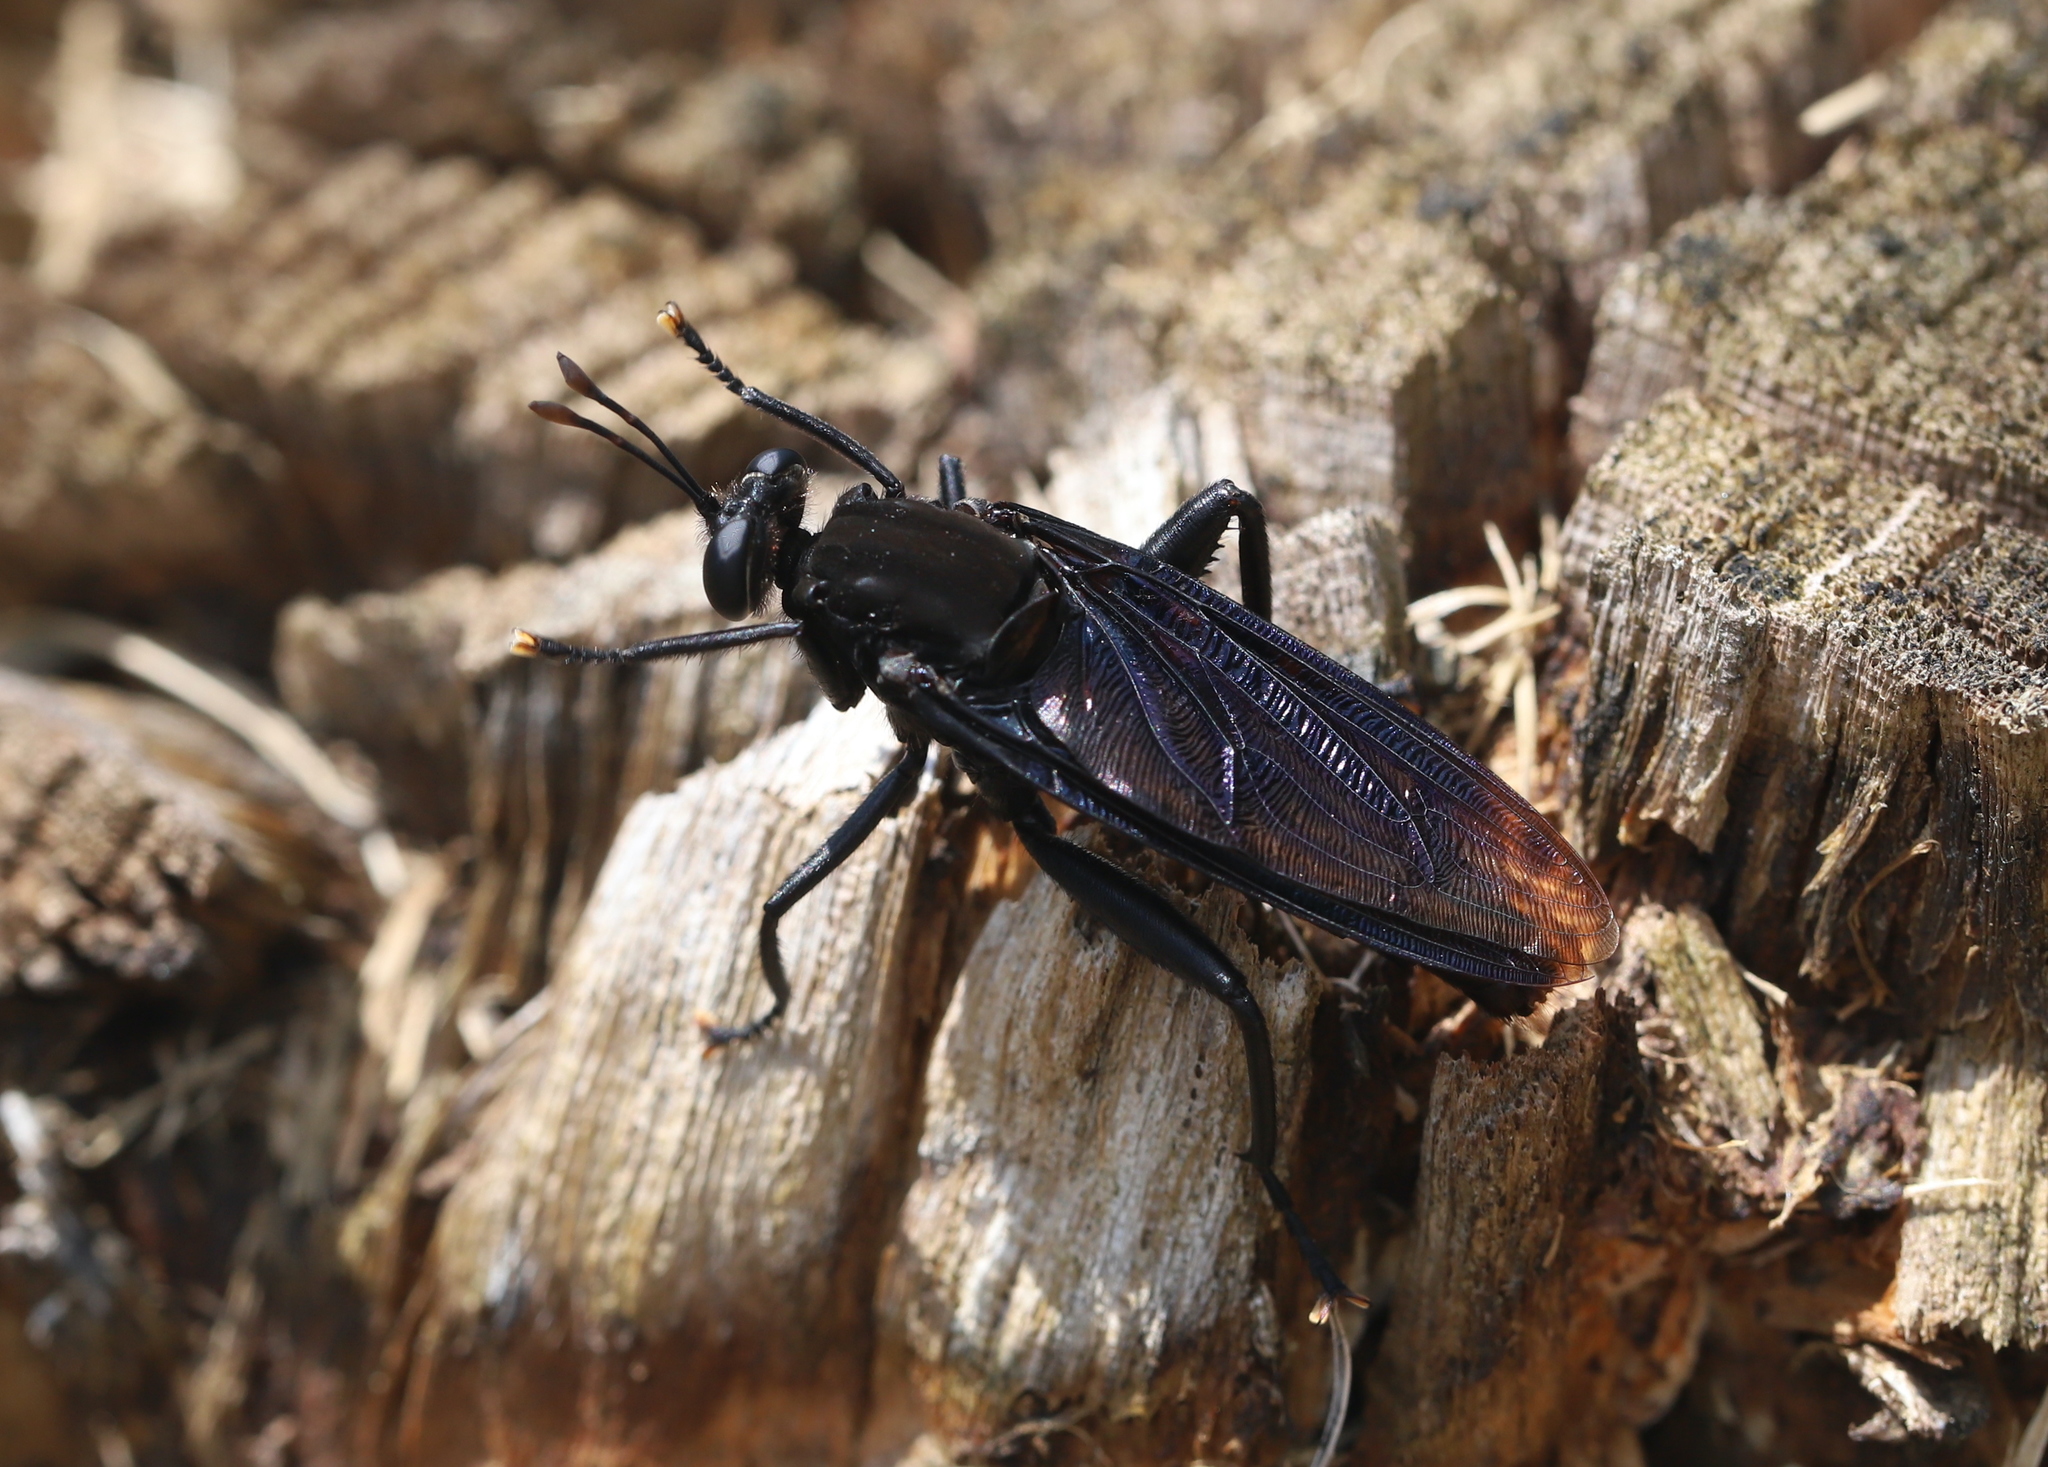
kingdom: Animalia
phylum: Arthropoda
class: Insecta
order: Diptera
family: Mydidae
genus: Mydas
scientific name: Mydas clavatus
